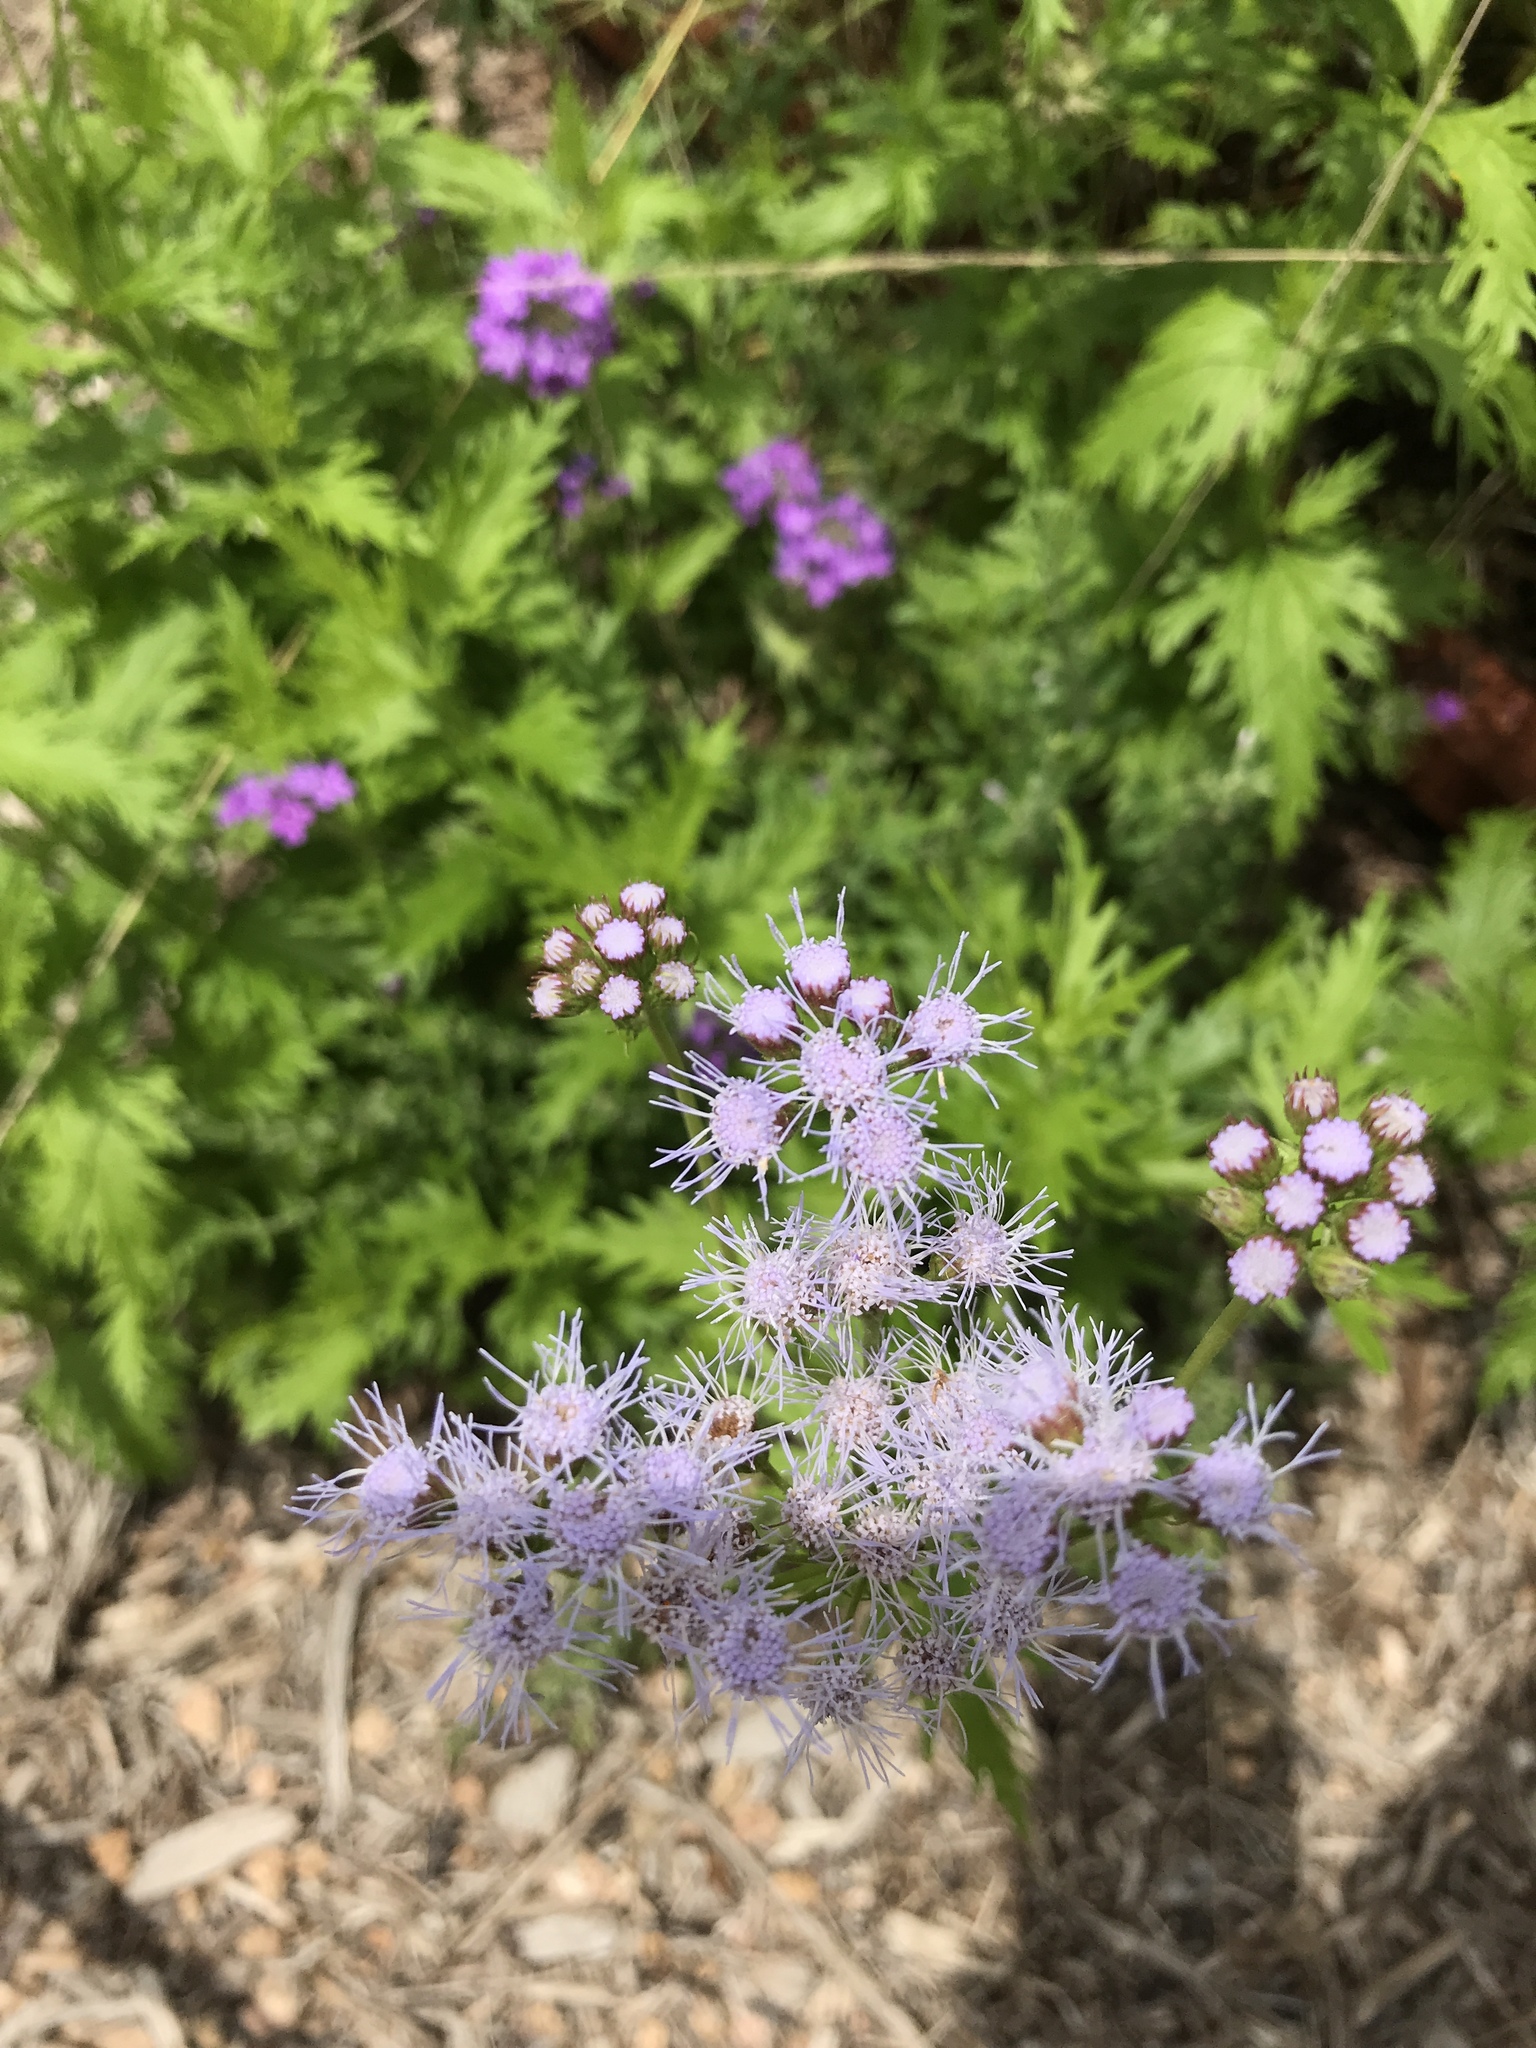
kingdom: Plantae
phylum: Tracheophyta
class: Magnoliopsida
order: Asterales
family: Asteraceae
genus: Conoclinium
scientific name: Conoclinium dissectum
